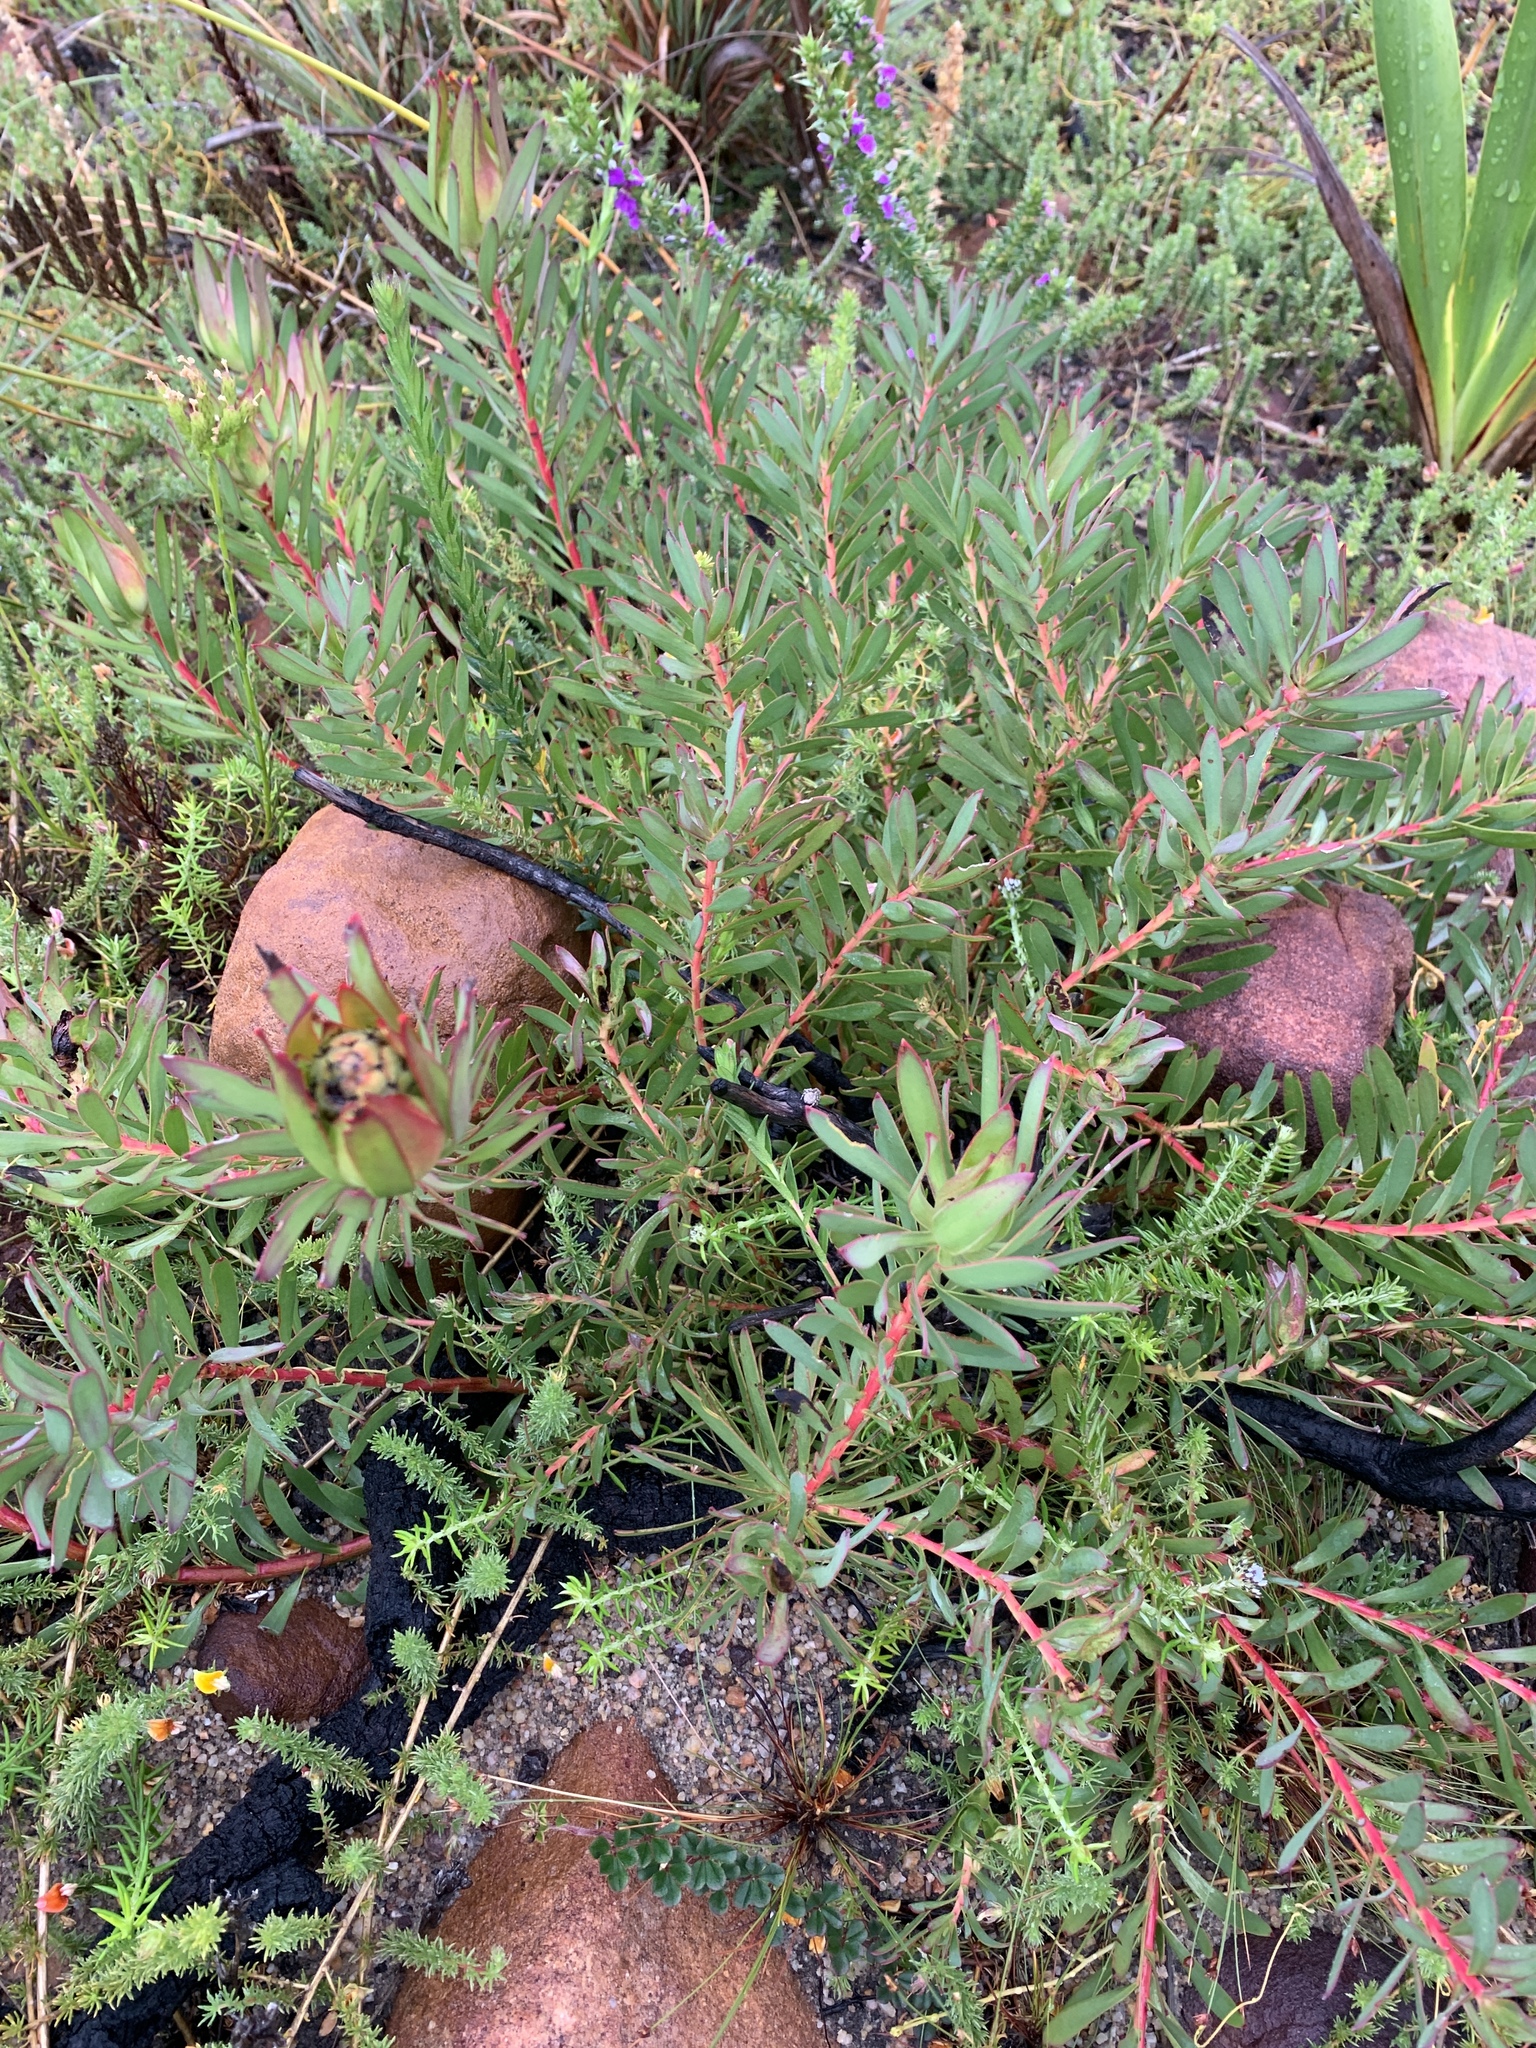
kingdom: Plantae
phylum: Tracheophyta
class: Magnoliopsida
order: Proteales
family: Proteaceae
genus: Leucadendron
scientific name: Leucadendron salignum
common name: Common sunshine conebush
